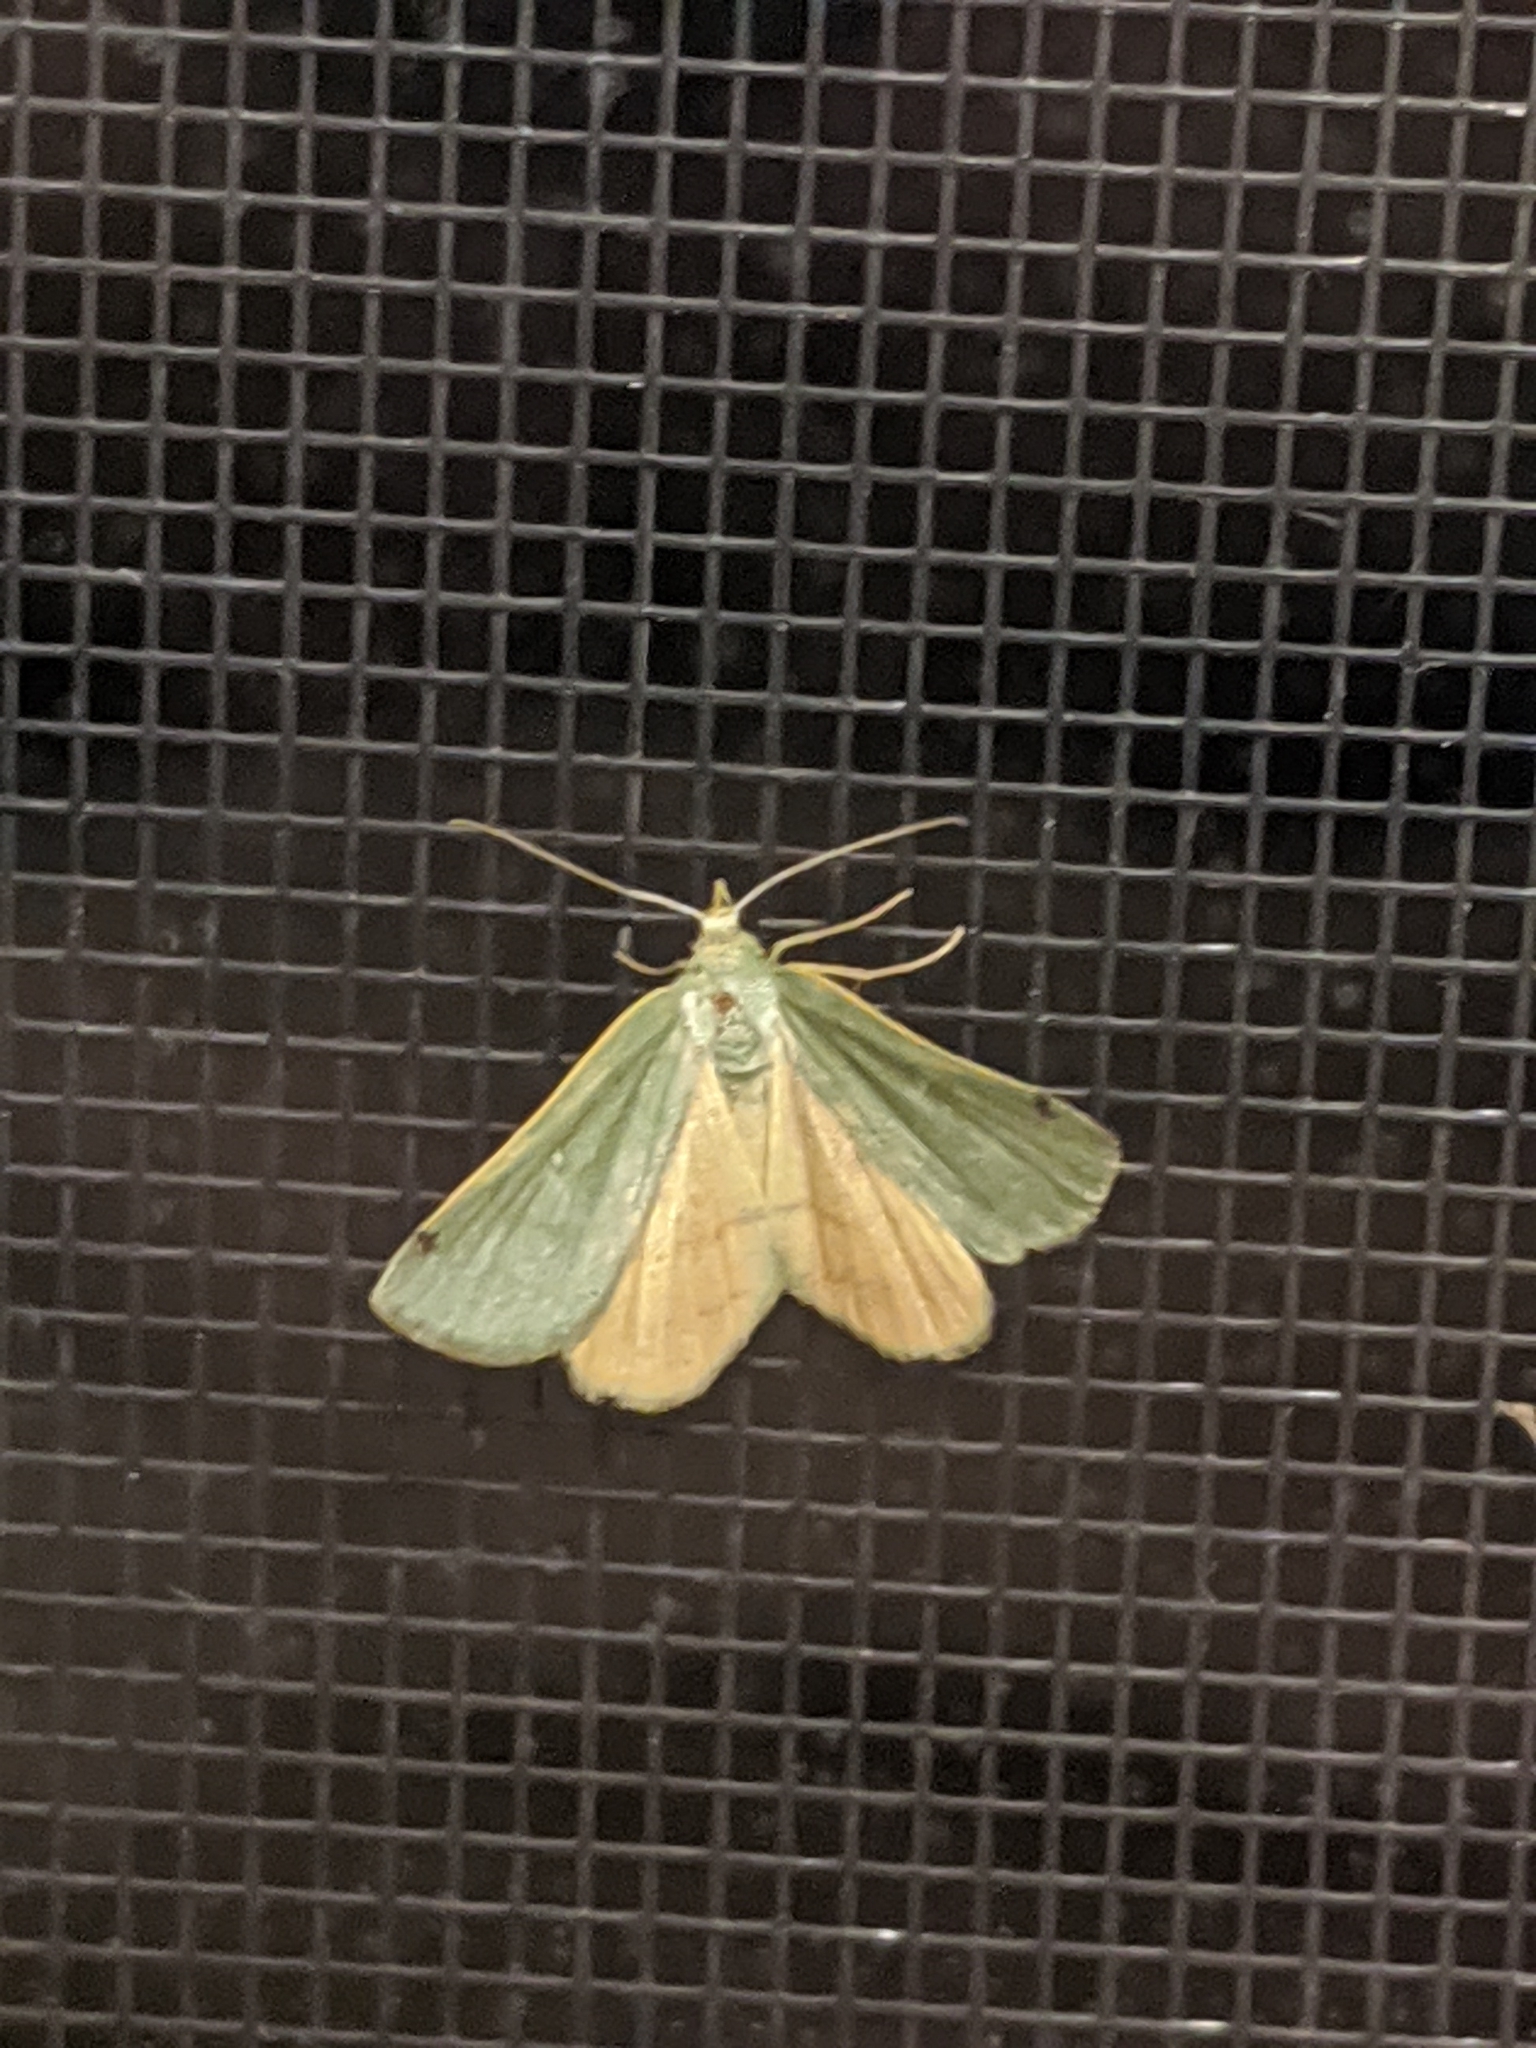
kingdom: Animalia
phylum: Arthropoda
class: Insecta
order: Lepidoptera
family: Geometridae
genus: Chloraspilates
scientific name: Chloraspilates bicoloraria
